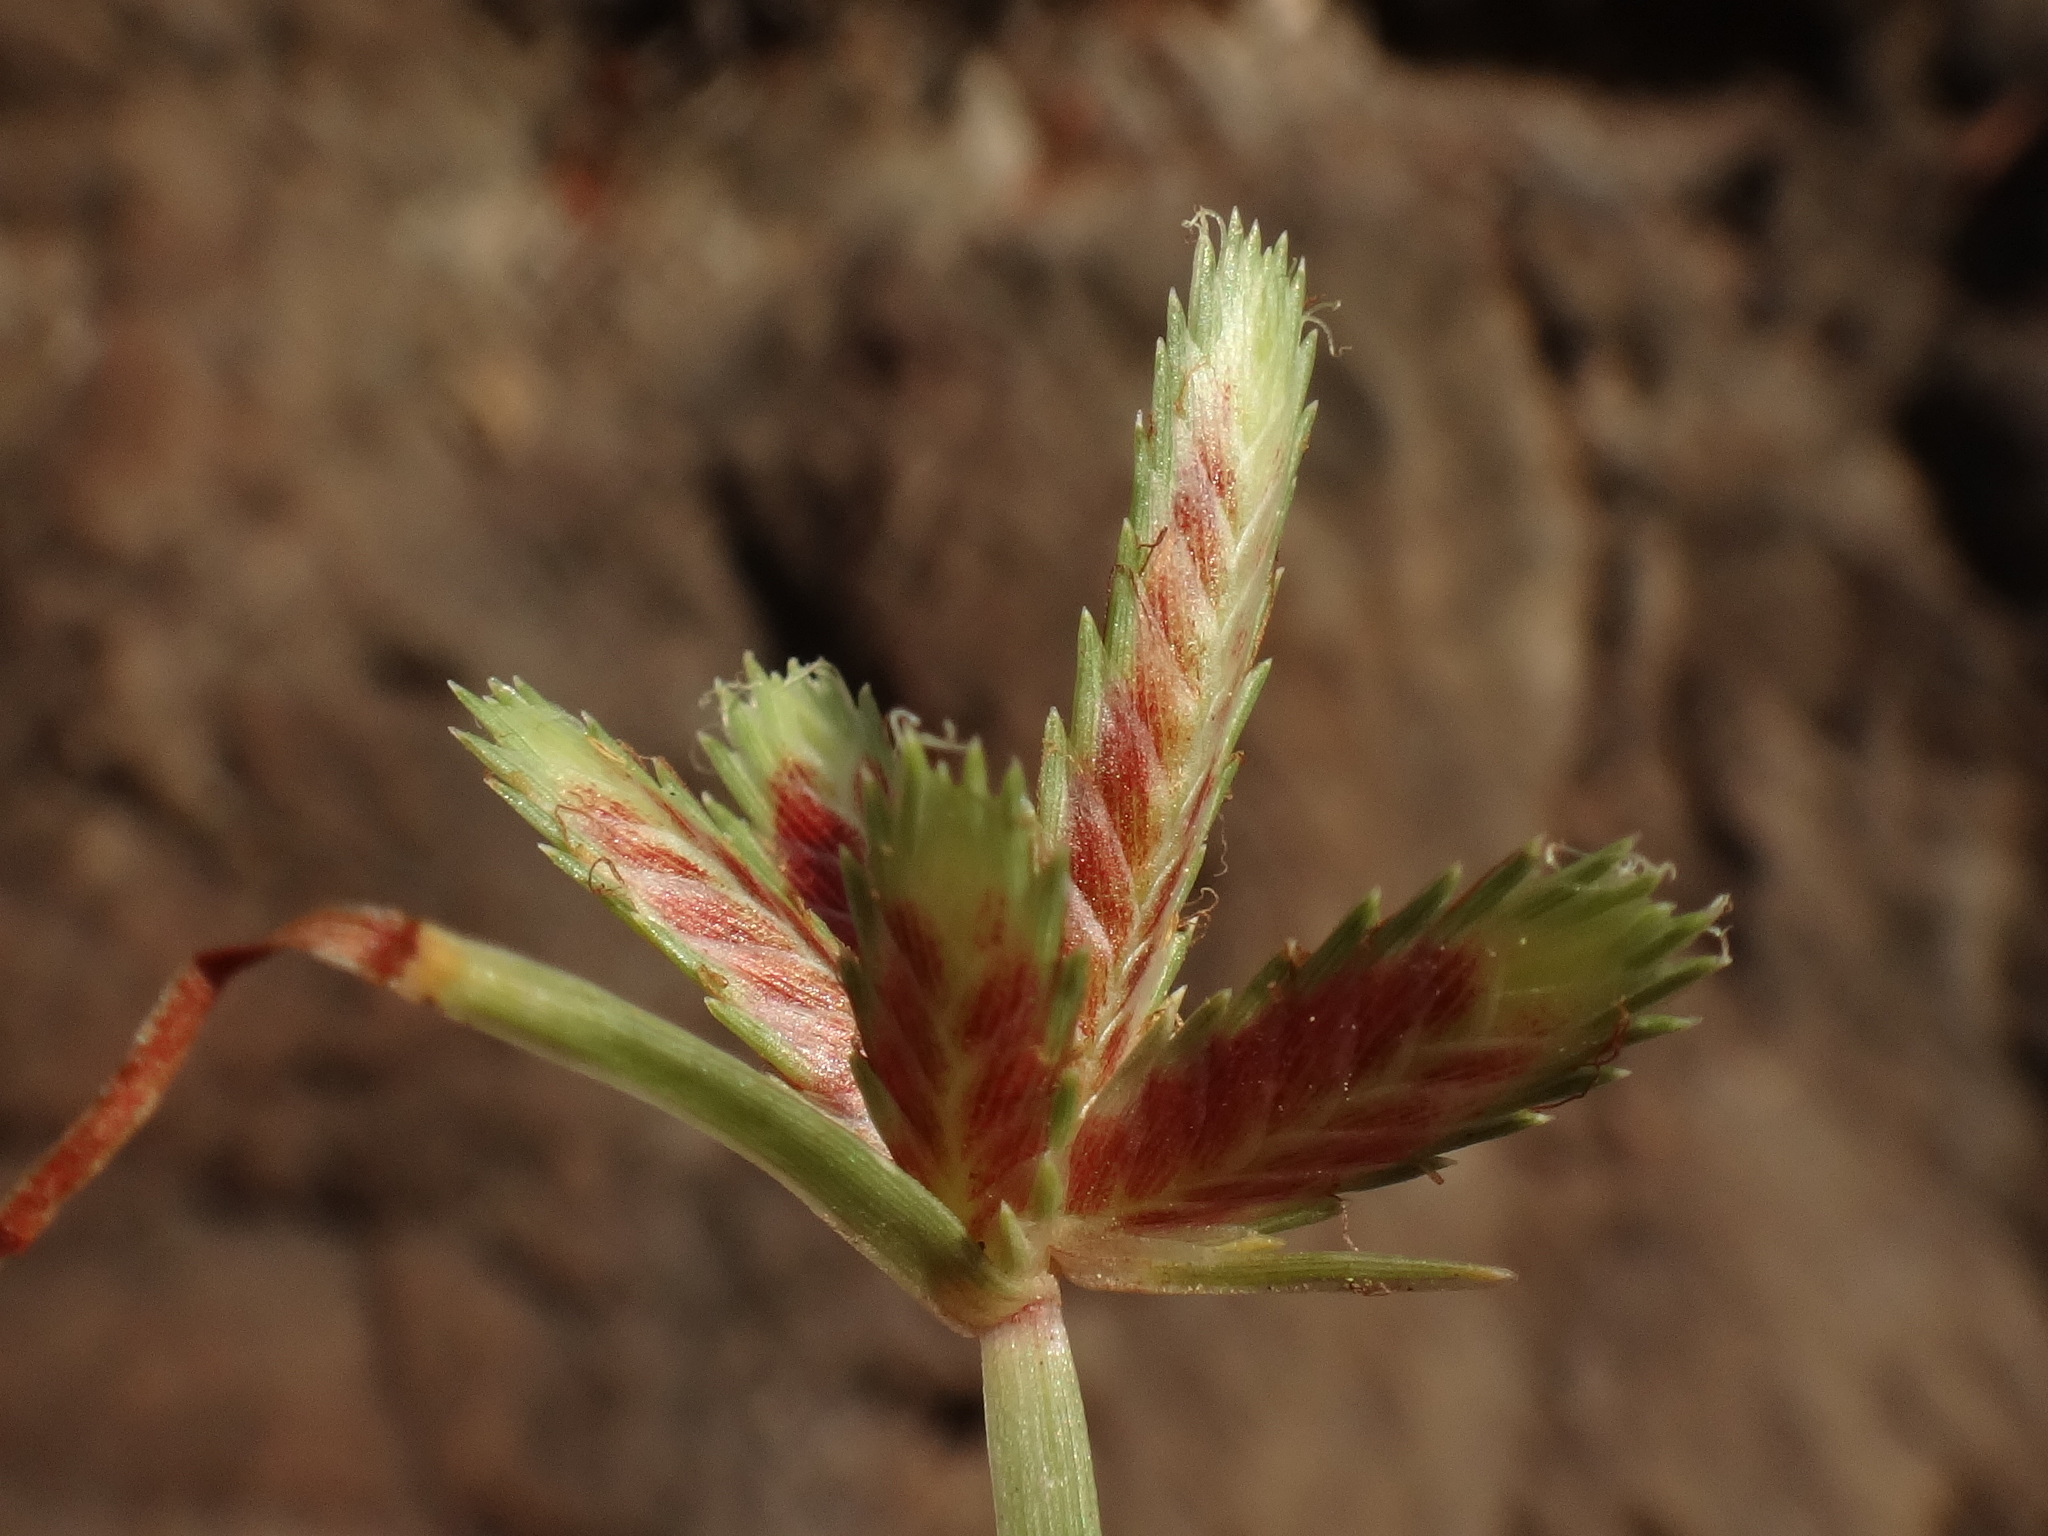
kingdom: Plantae
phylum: Tracheophyta
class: Liliopsida
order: Poales
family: Cyperaceae
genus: Cyperus
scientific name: Cyperus rubicundus
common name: Coco-grass
